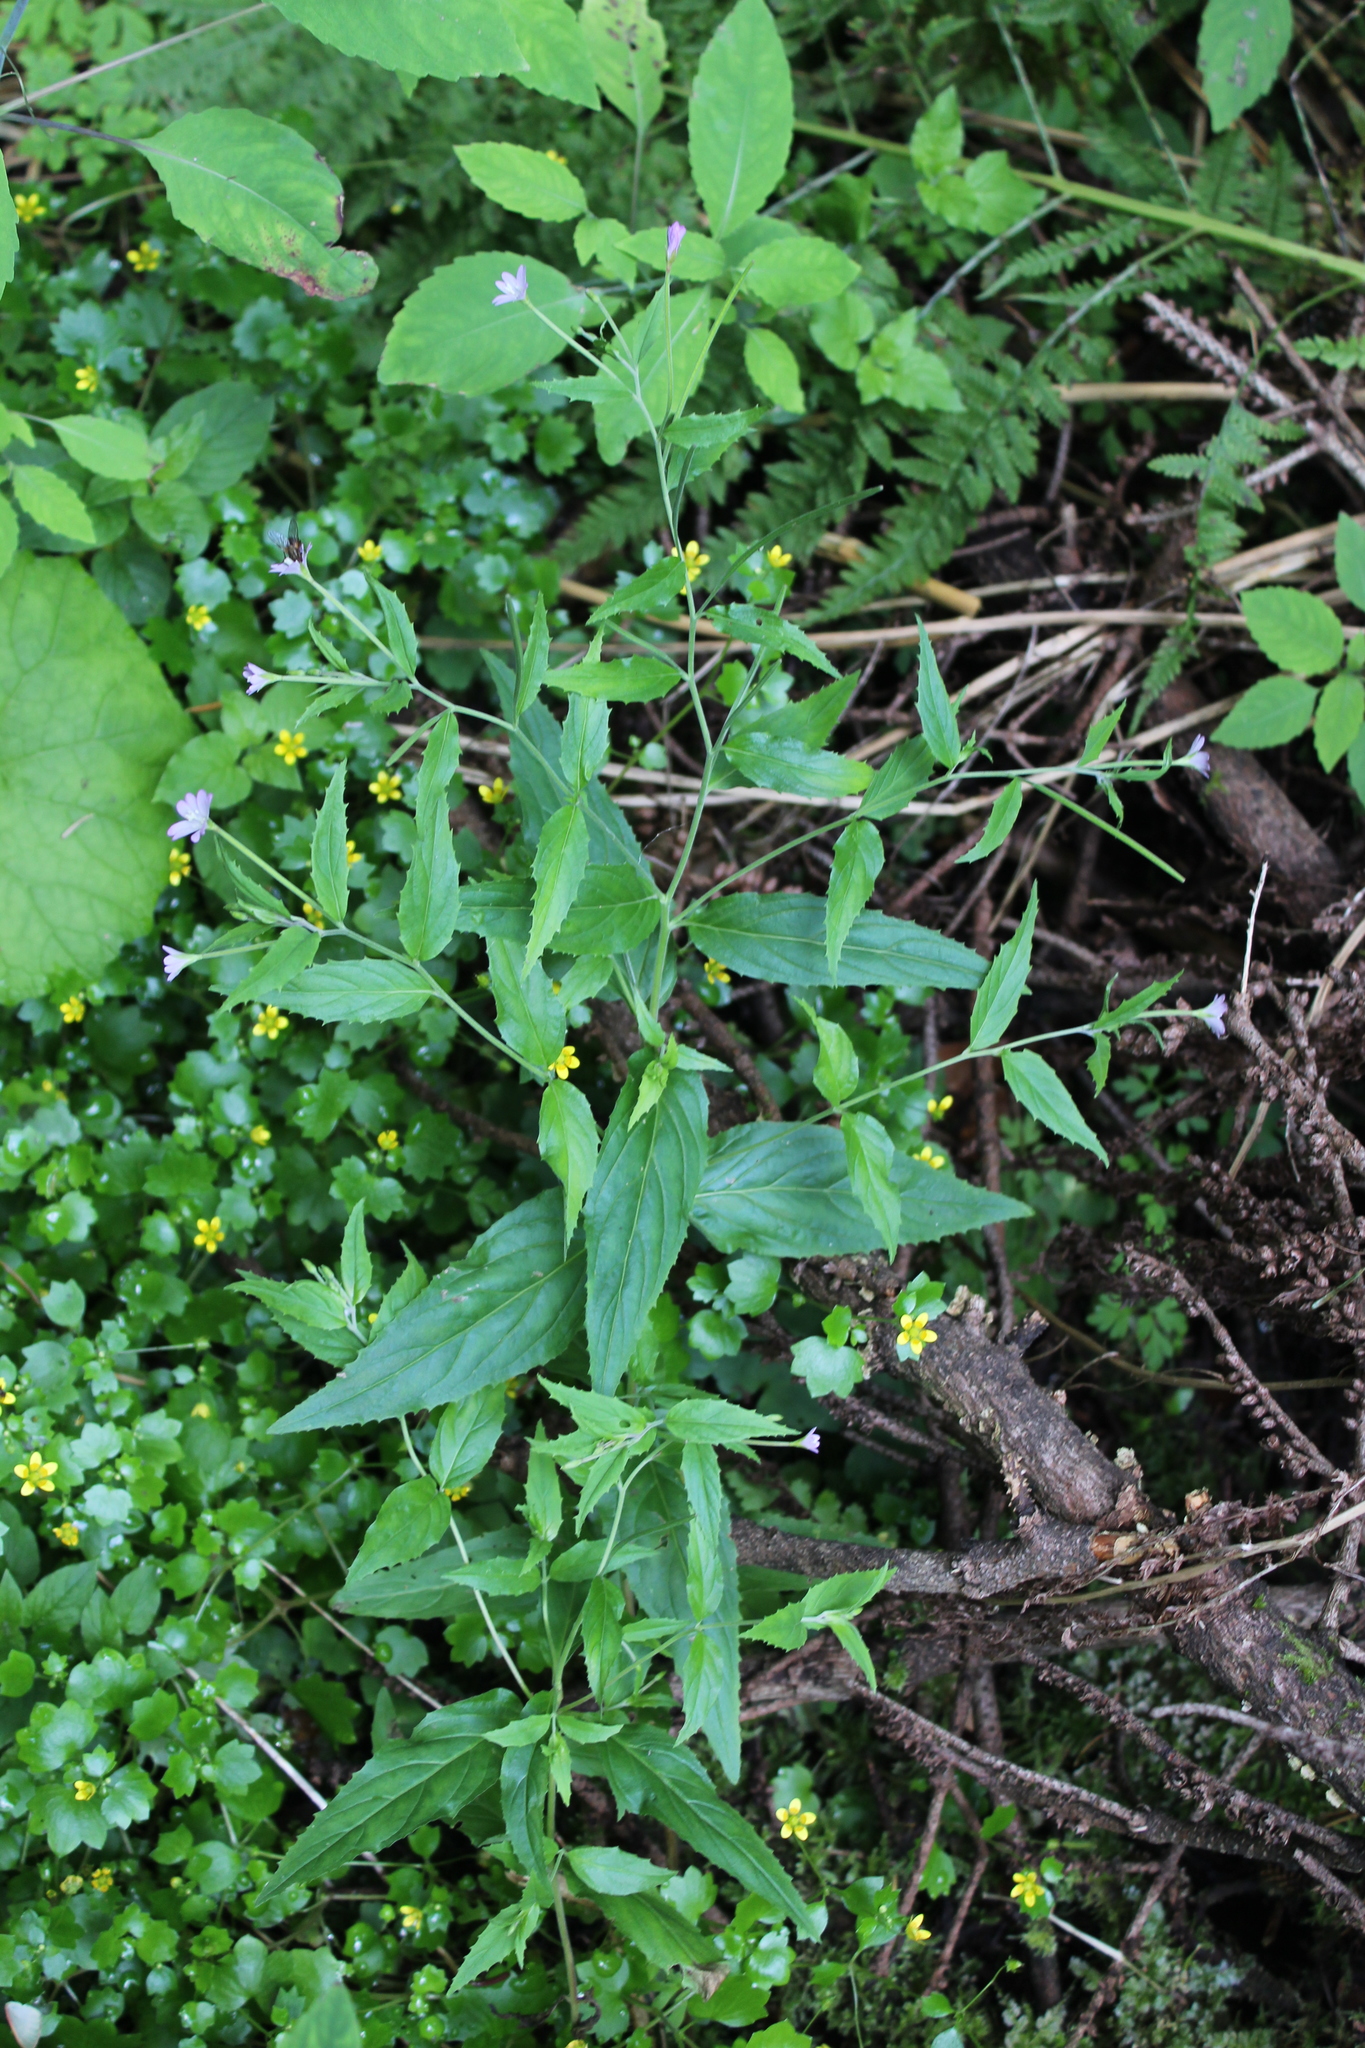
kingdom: Plantae
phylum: Tracheophyta
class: Magnoliopsida
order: Myrtales
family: Onagraceae
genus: Epilobium
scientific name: Epilobium montanum
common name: Broad-leaved willowherb
